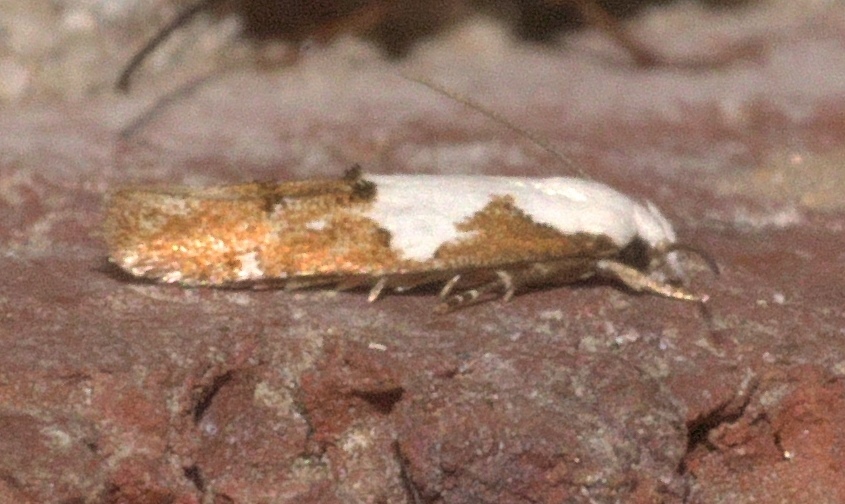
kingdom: Animalia
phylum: Arthropoda
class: Insecta
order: Lepidoptera
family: Momphidae
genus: Mompha
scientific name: Mompha circumscriptella
